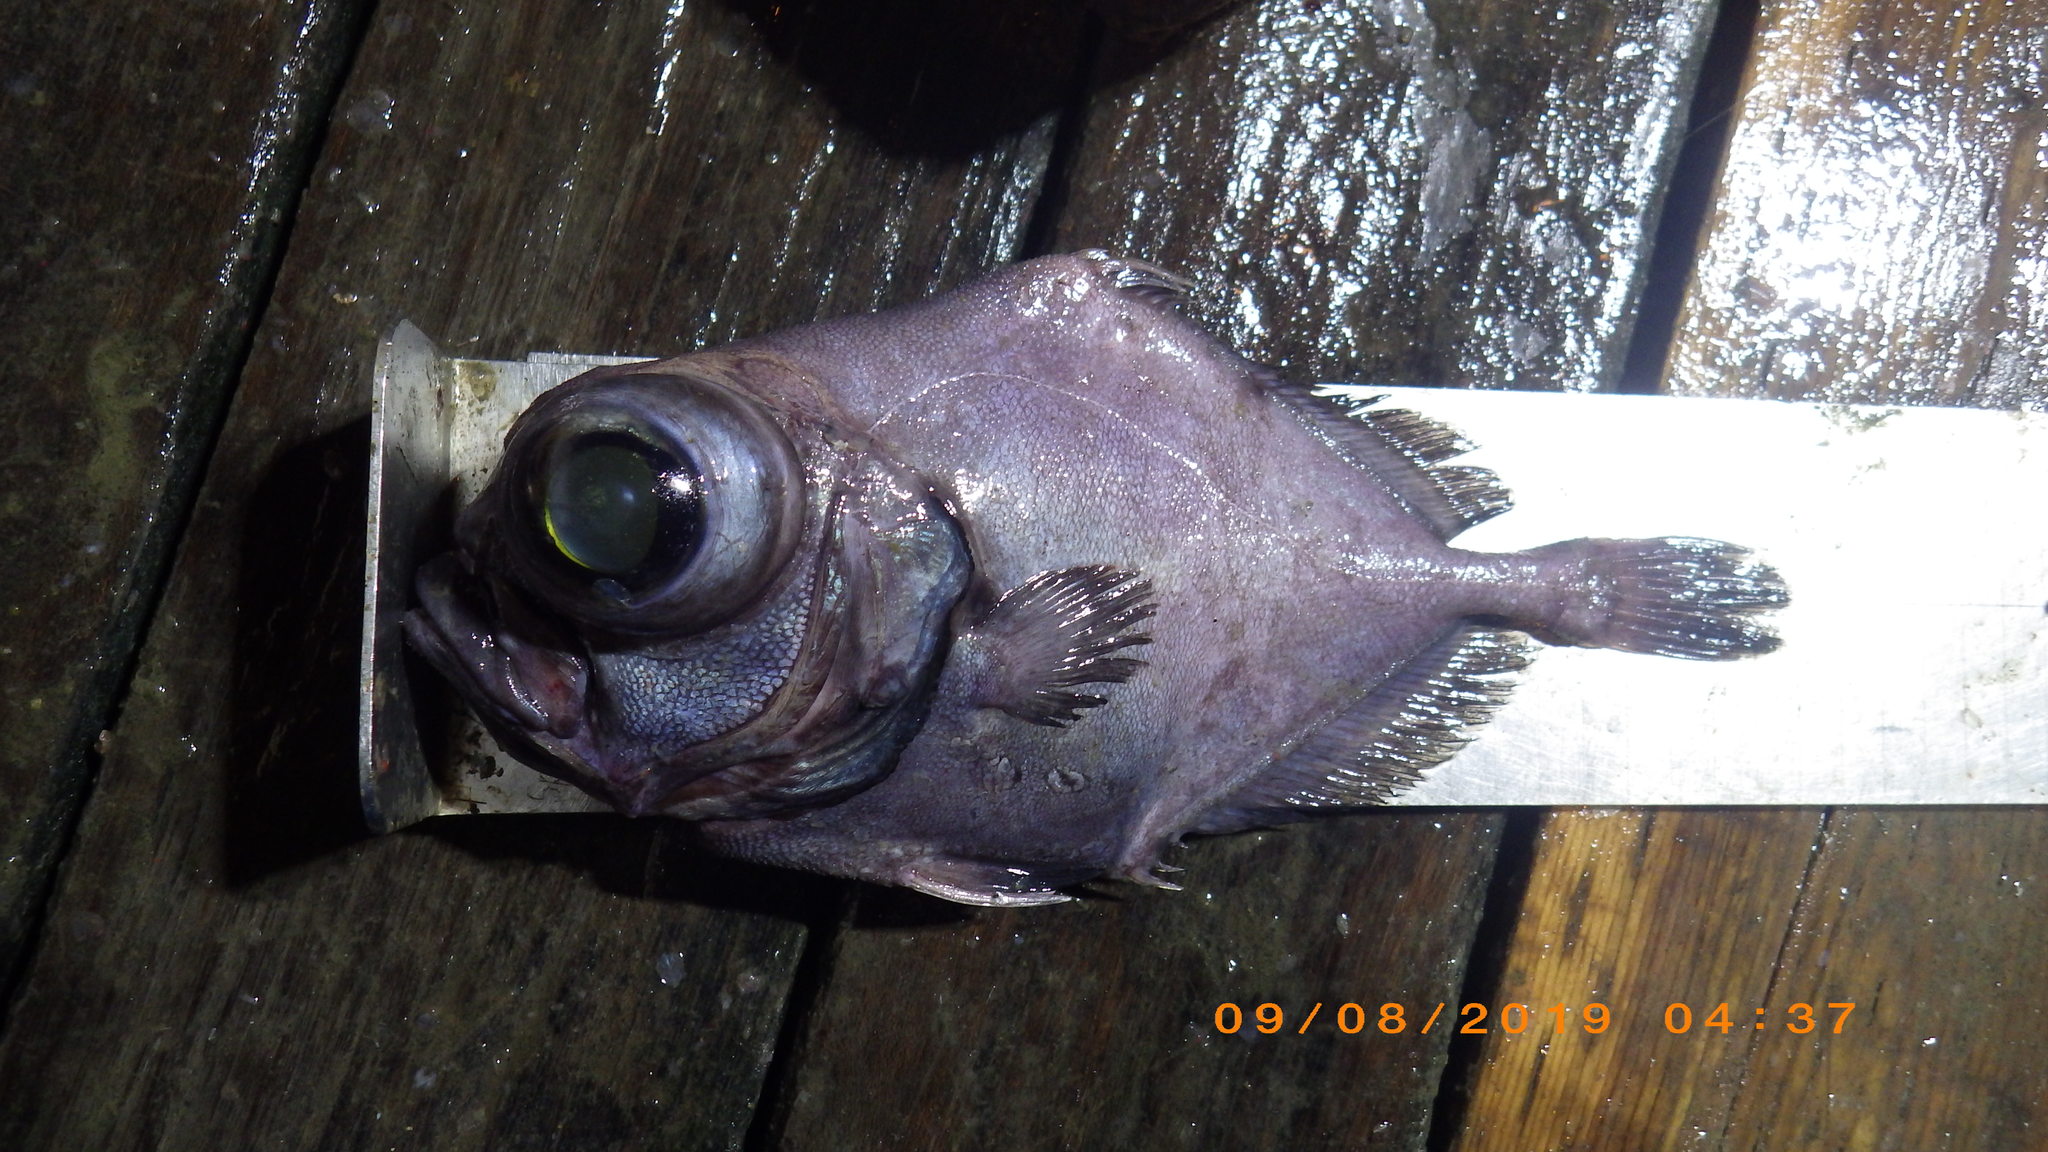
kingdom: Animalia
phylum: Chordata
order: Zeiformes
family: Oreosomatidae
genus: Allocyttus
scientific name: Allocyttus folletti
